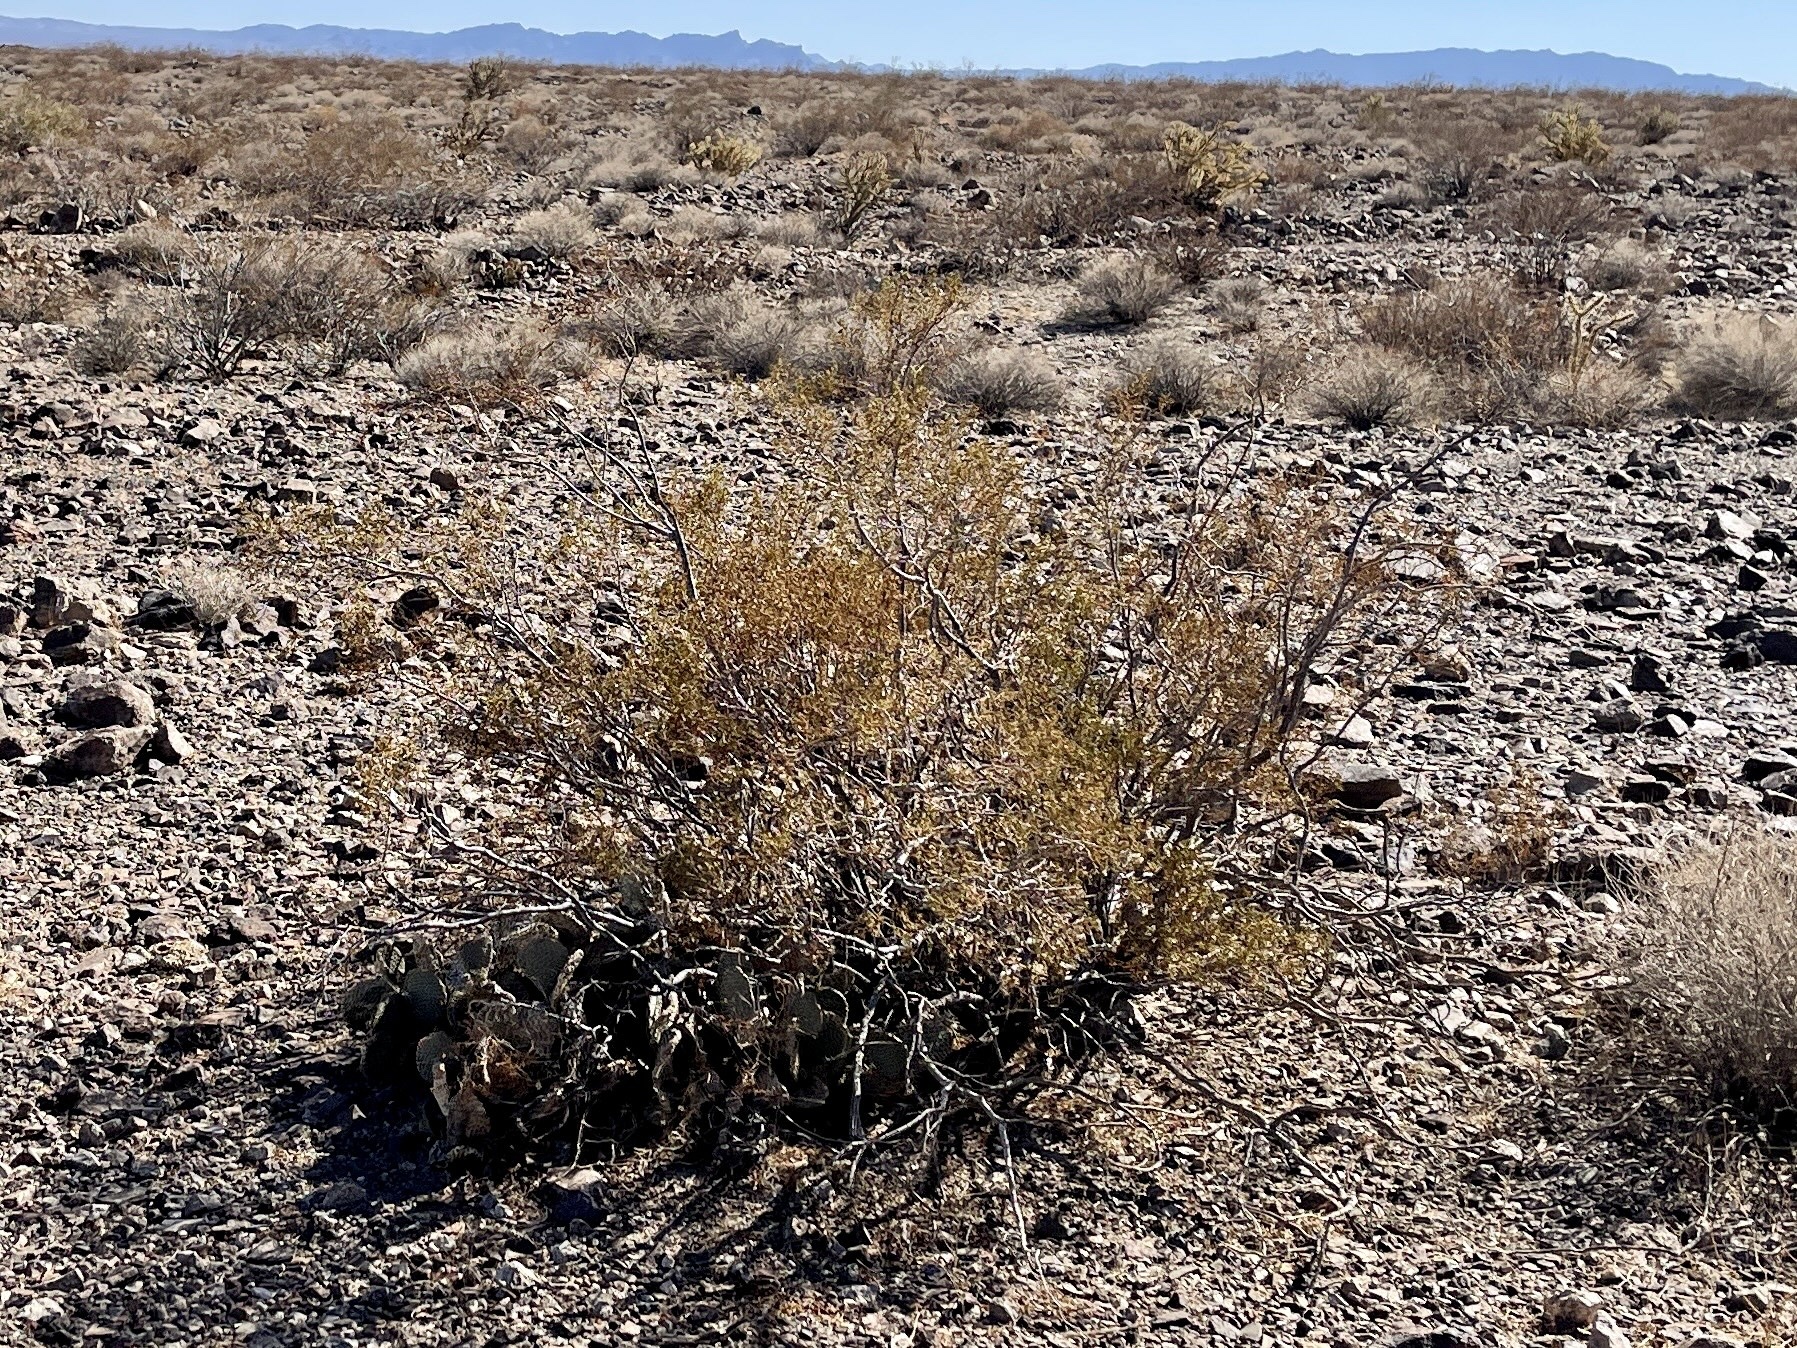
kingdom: Plantae
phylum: Tracheophyta
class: Magnoliopsida
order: Zygophyllales
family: Zygophyllaceae
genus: Larrea
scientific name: Larrea tridentata
